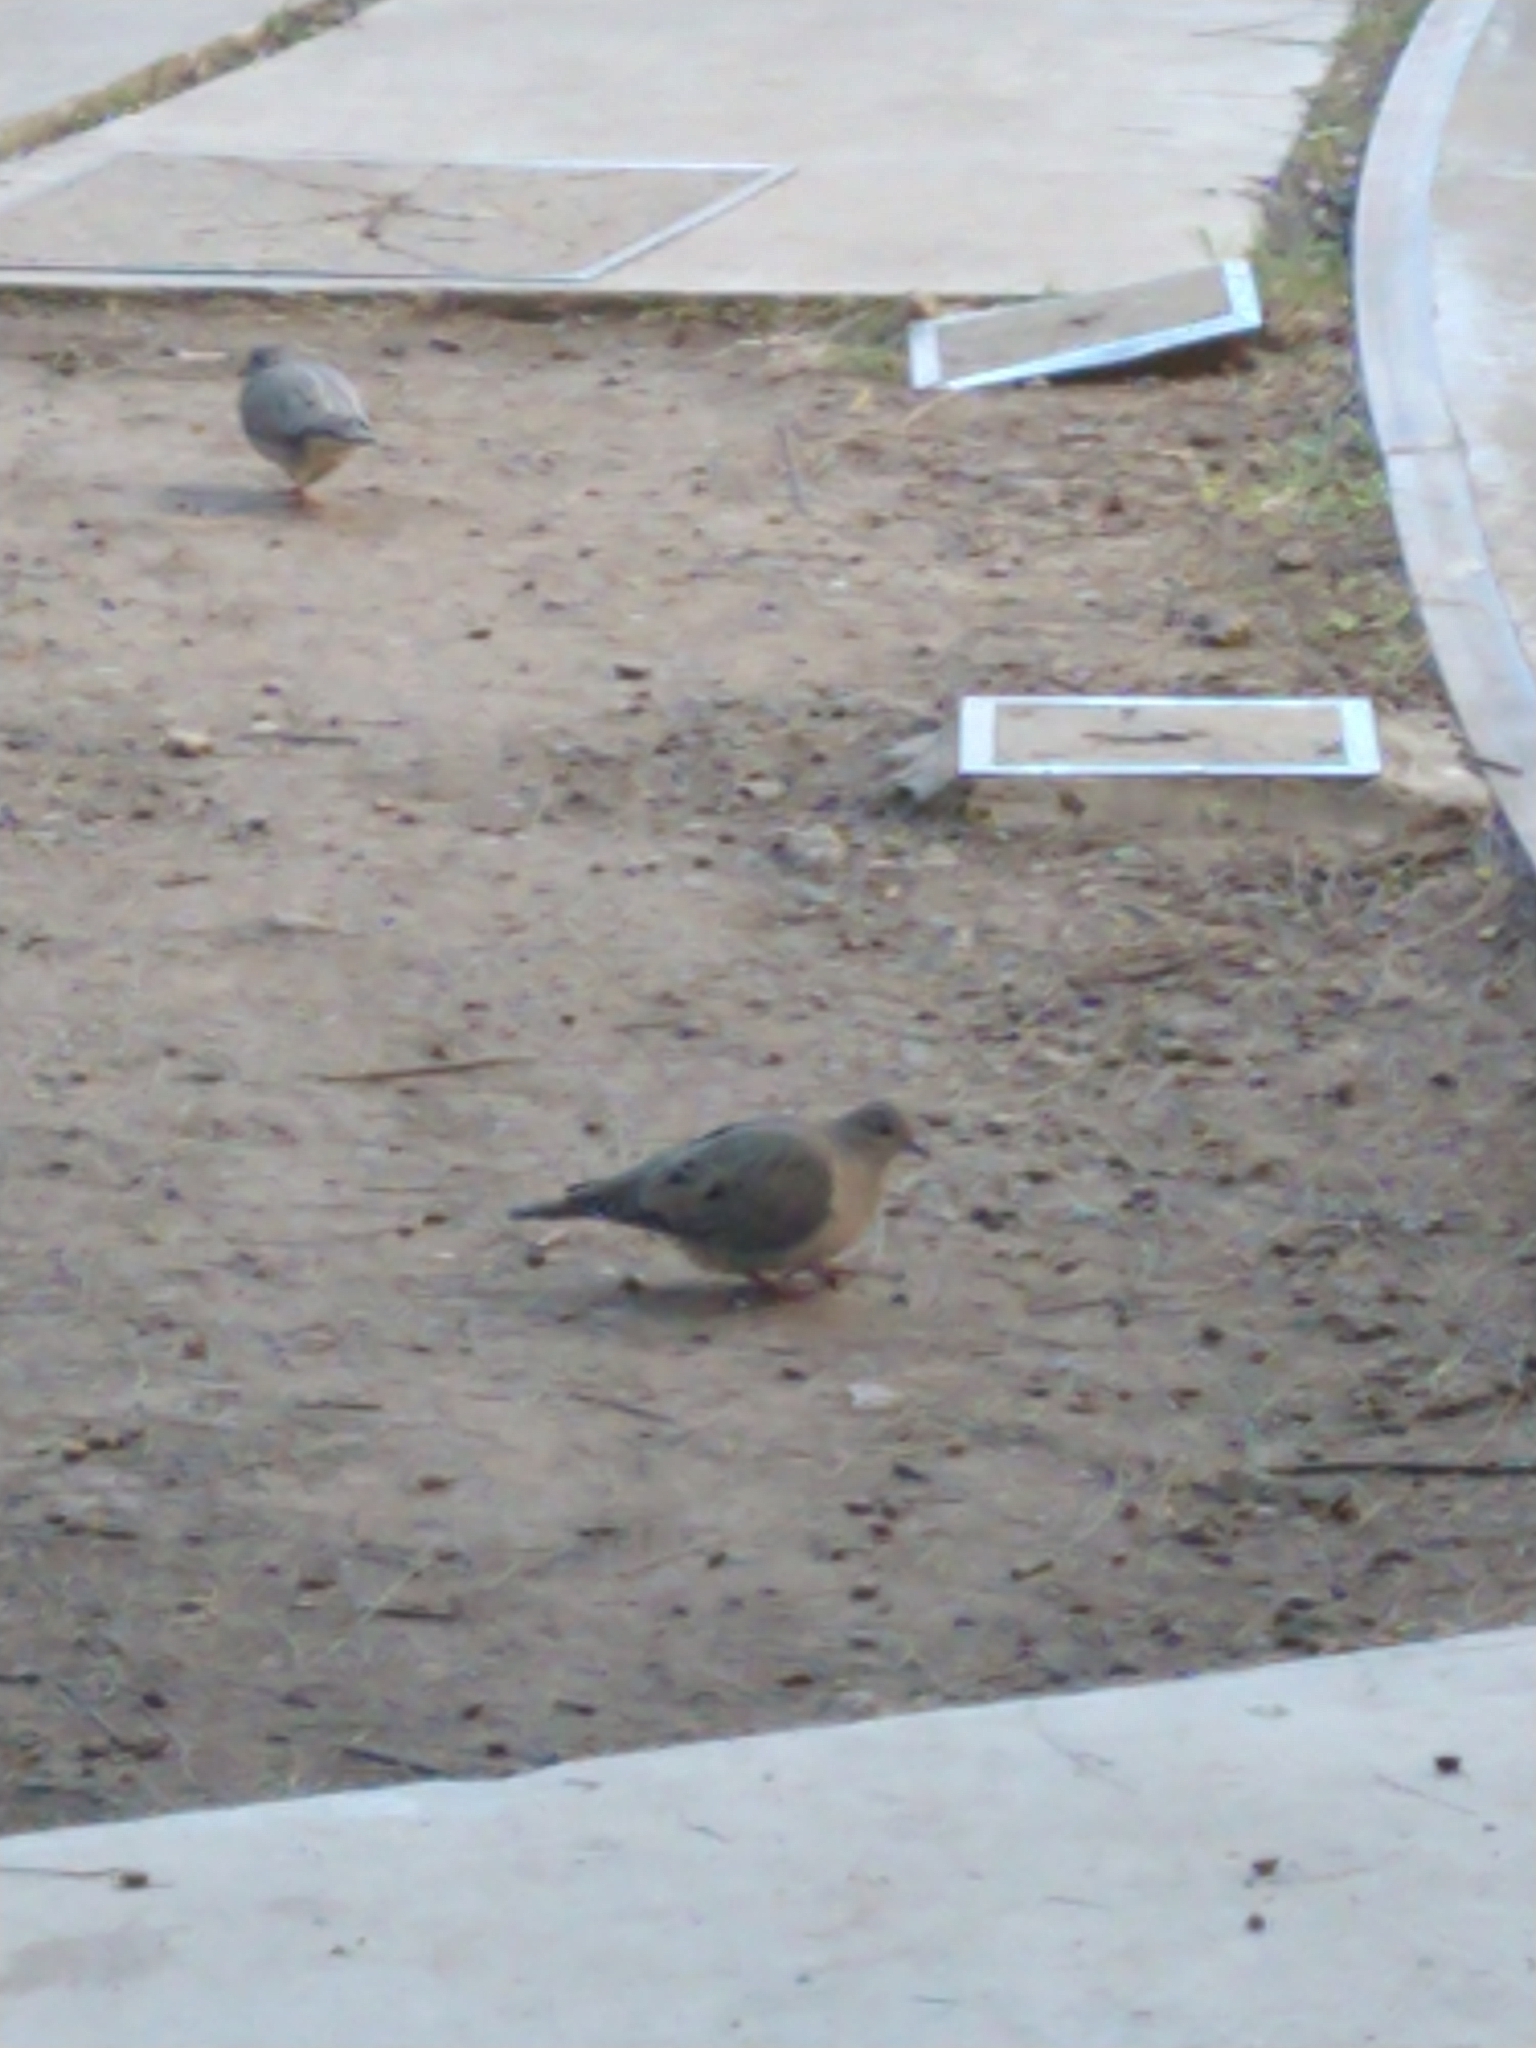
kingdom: Animalia
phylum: Chordata
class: Aves
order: Columbiformes
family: Columbidae
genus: Zenaida
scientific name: Zenaida auriculata
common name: Eared dove
